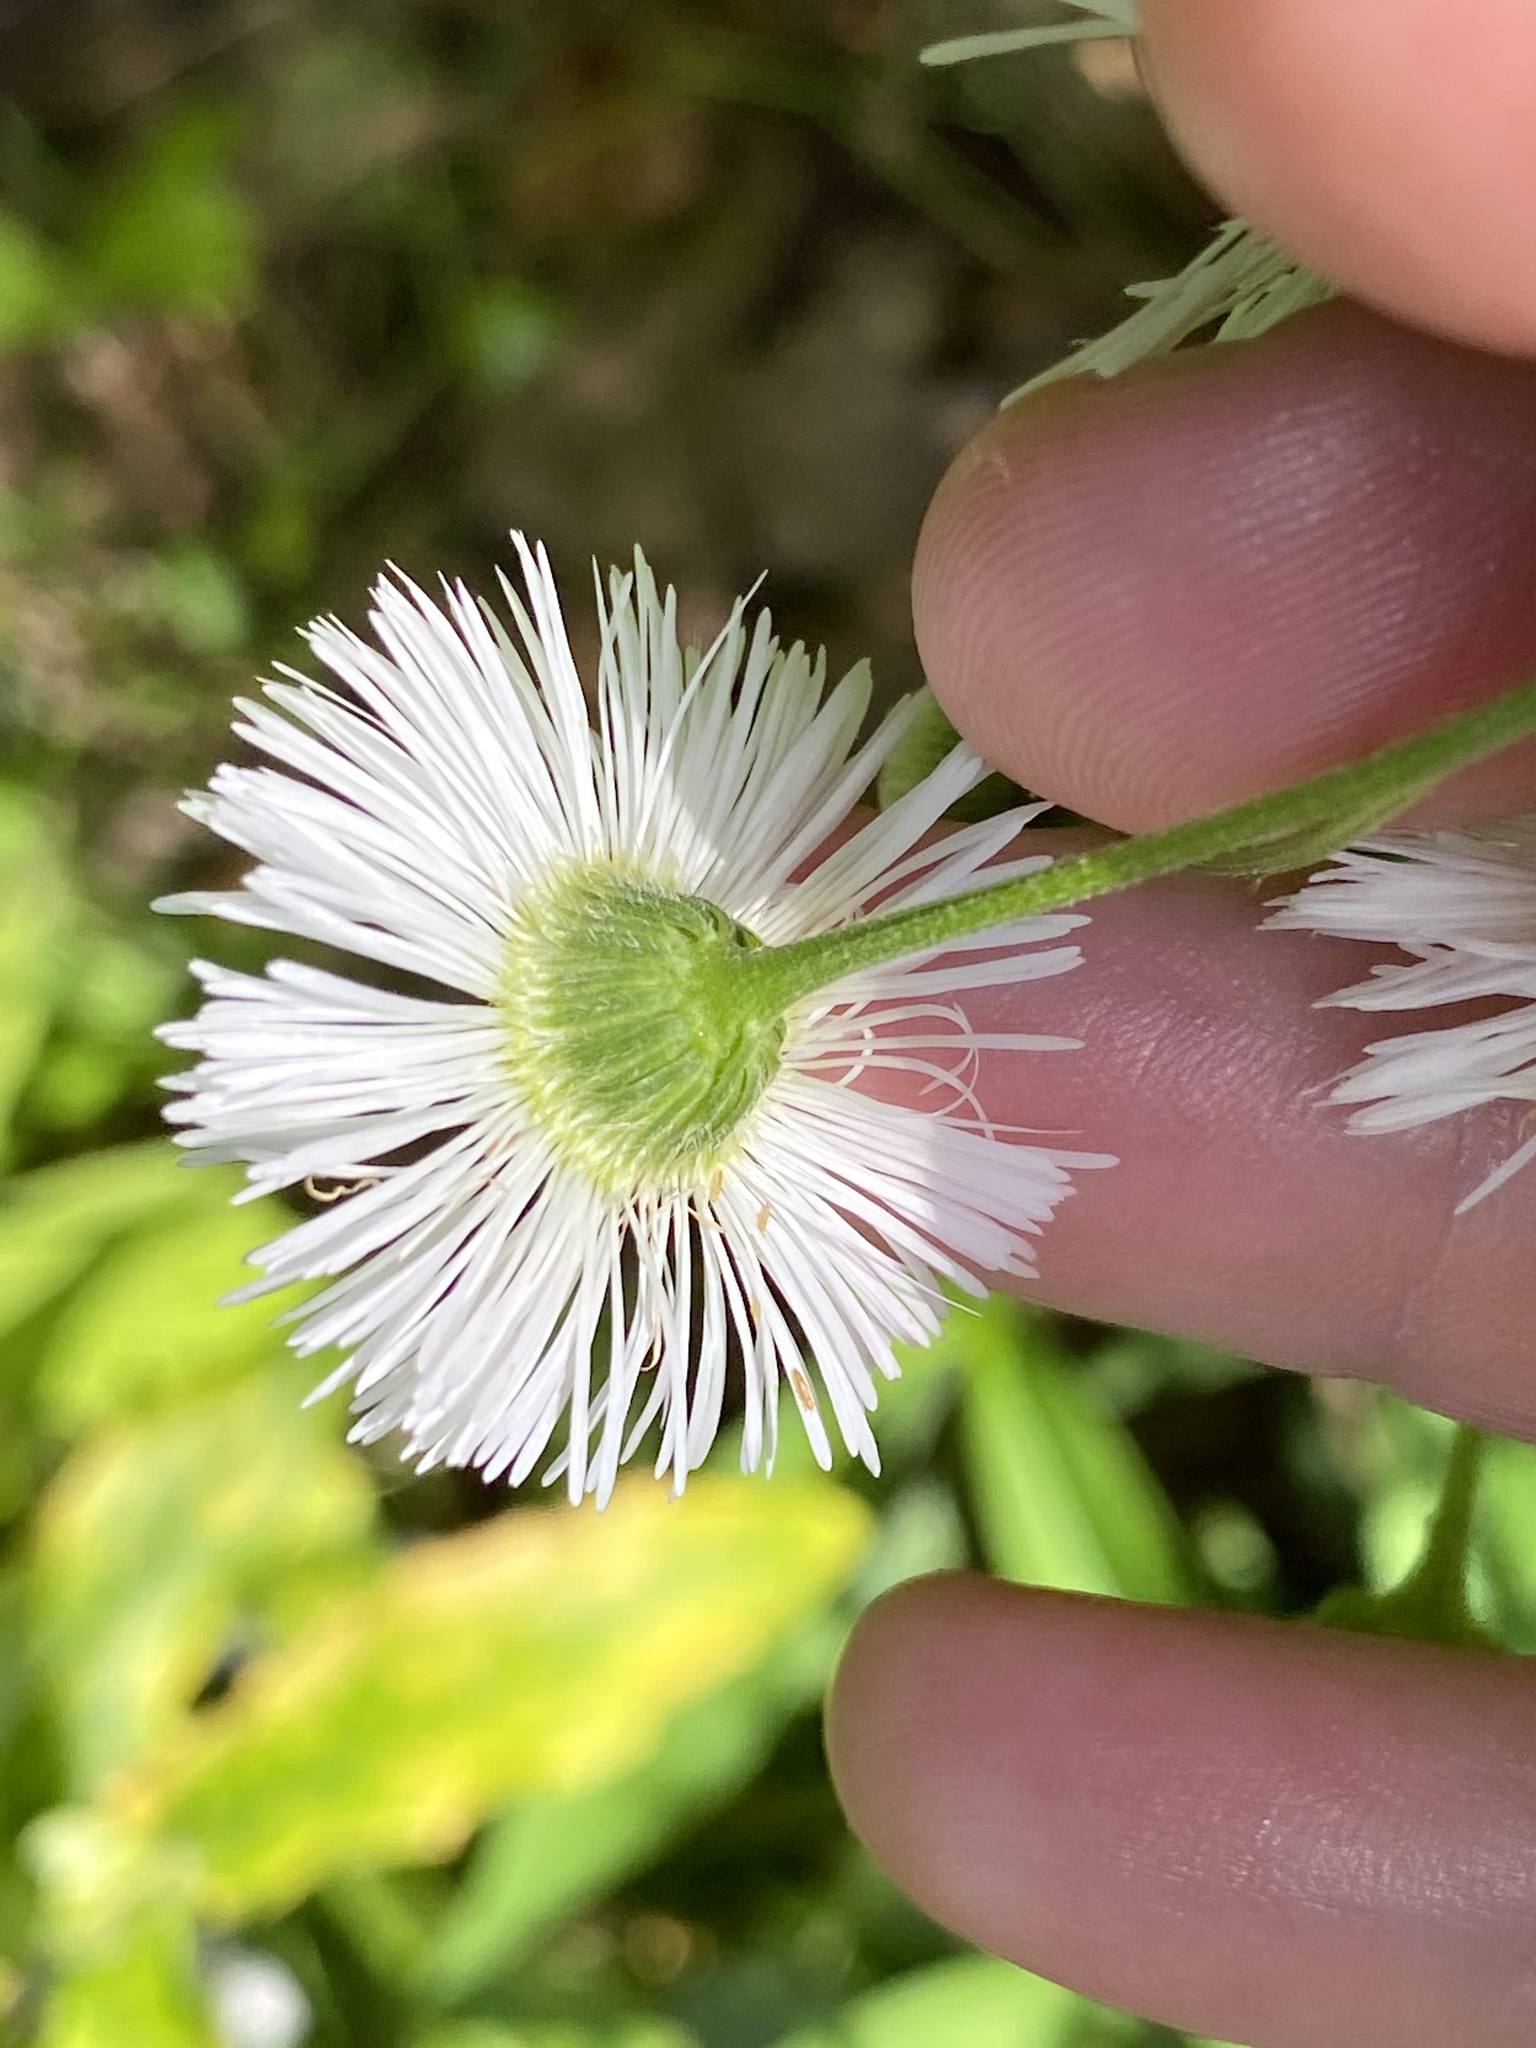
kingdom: Plantae
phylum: Tracheophyta
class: Magnoliopsida
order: Asterales
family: Asteraceae
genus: Erigeron
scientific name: Erigeron philadelphicus
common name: Robin's-plantain
